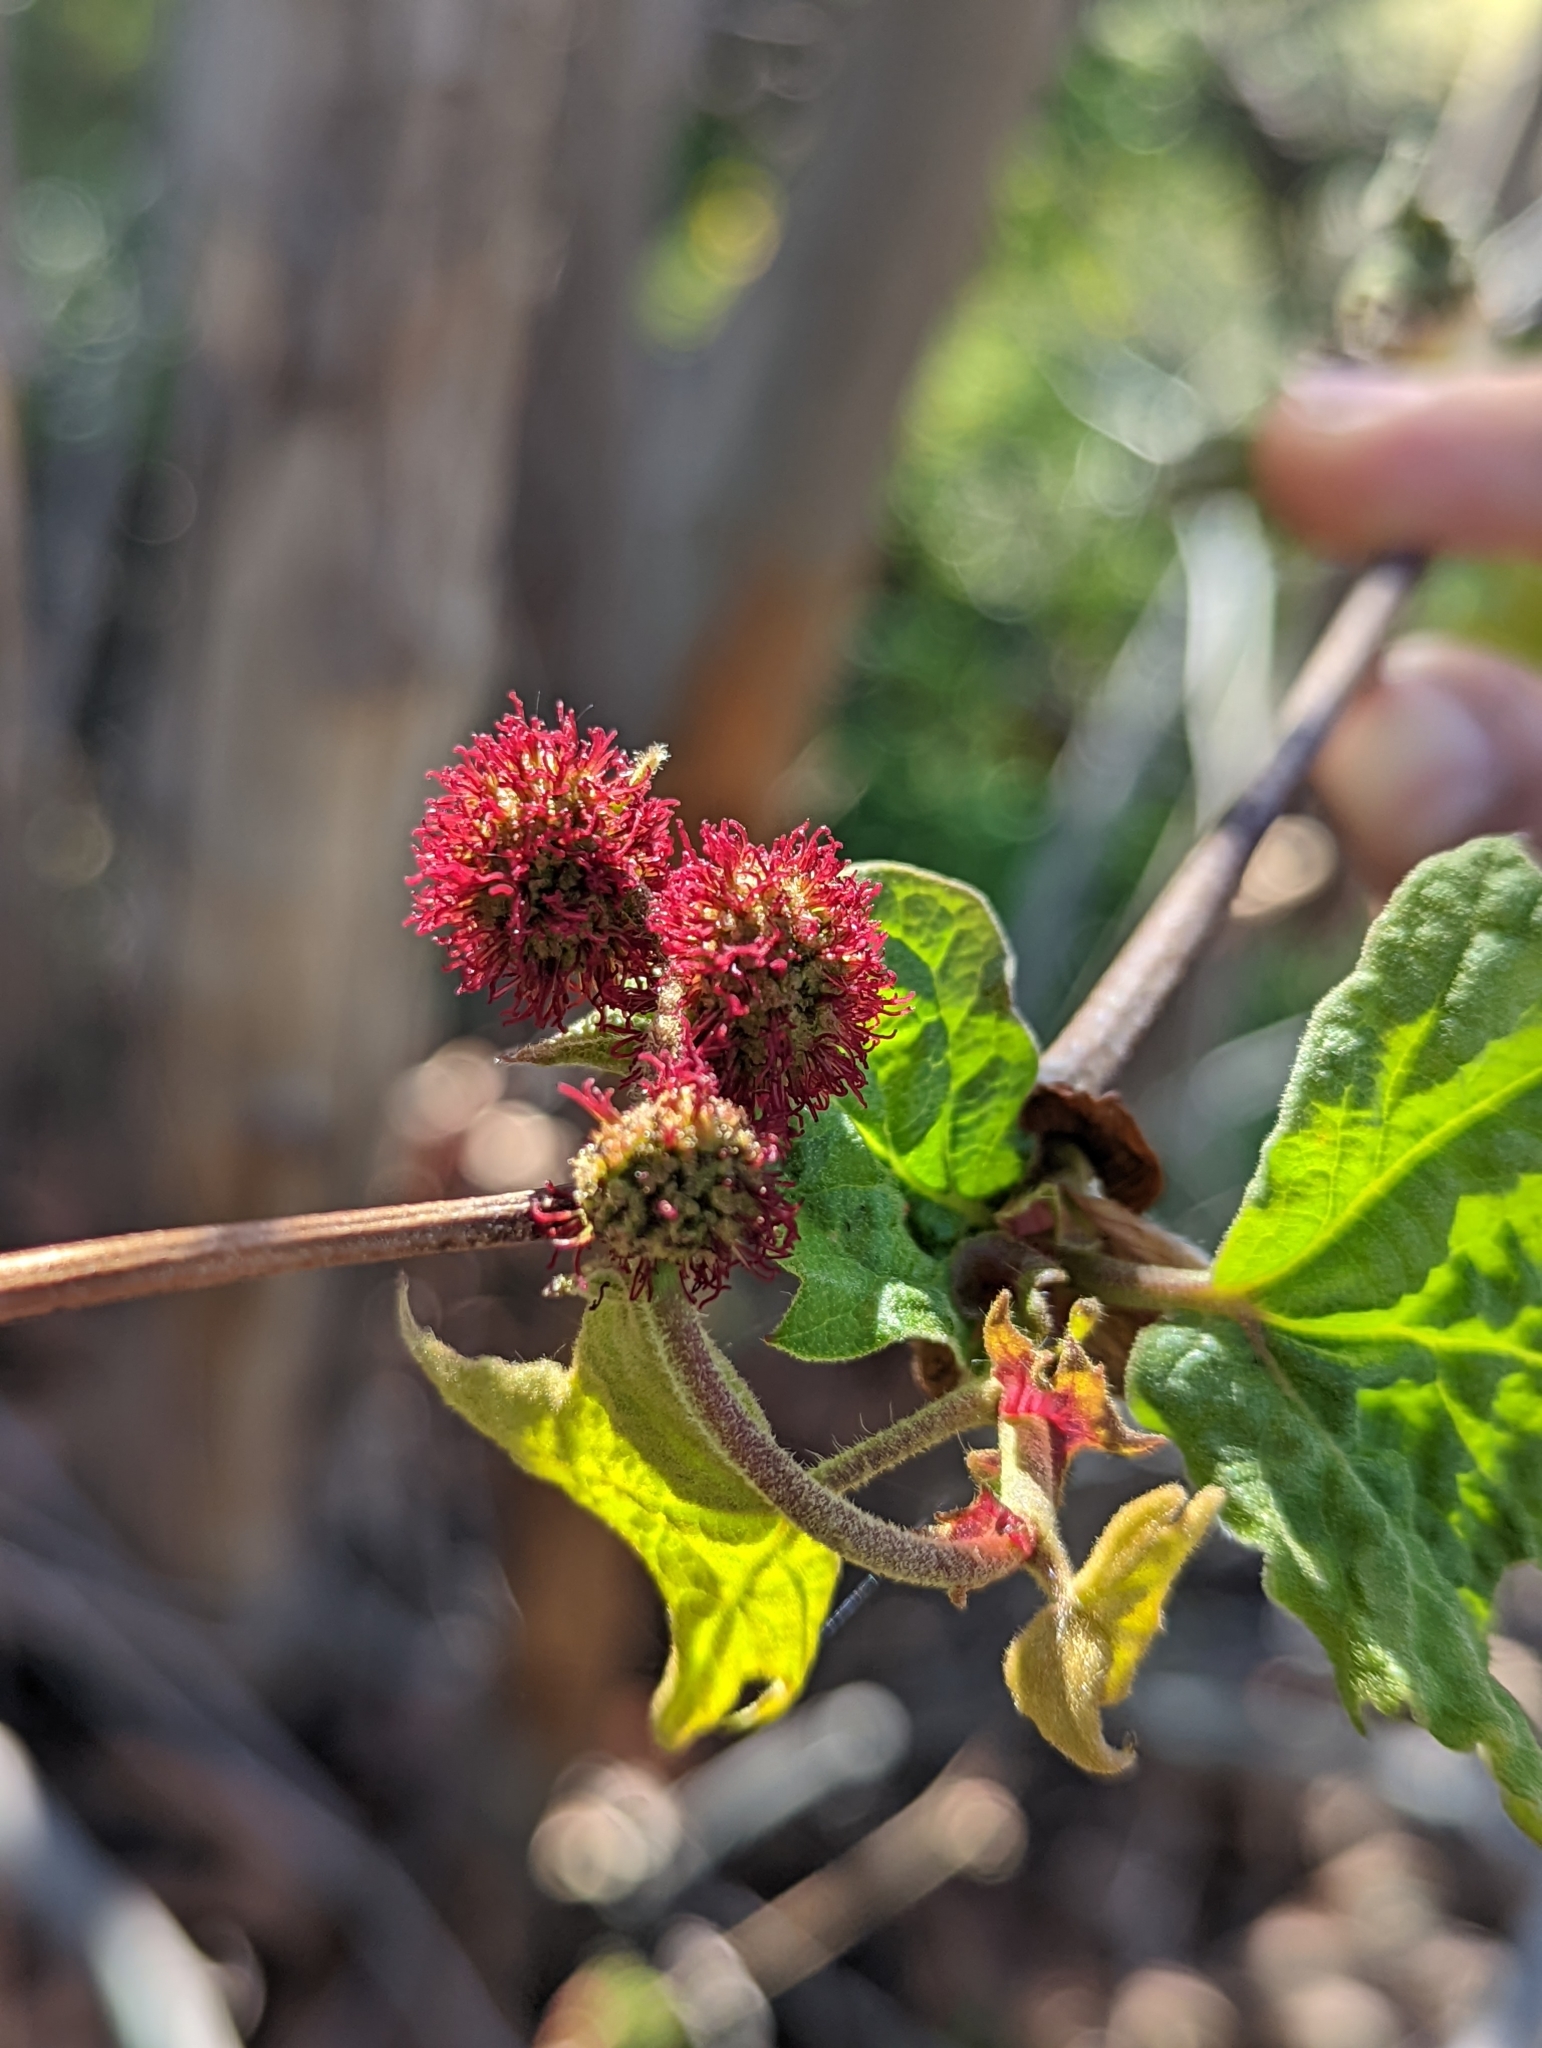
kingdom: Plantae
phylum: Tracheophyta
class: Magnoliopsida
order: Proteales
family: Platanaceae
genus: Platanus
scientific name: Platanus racemosa
